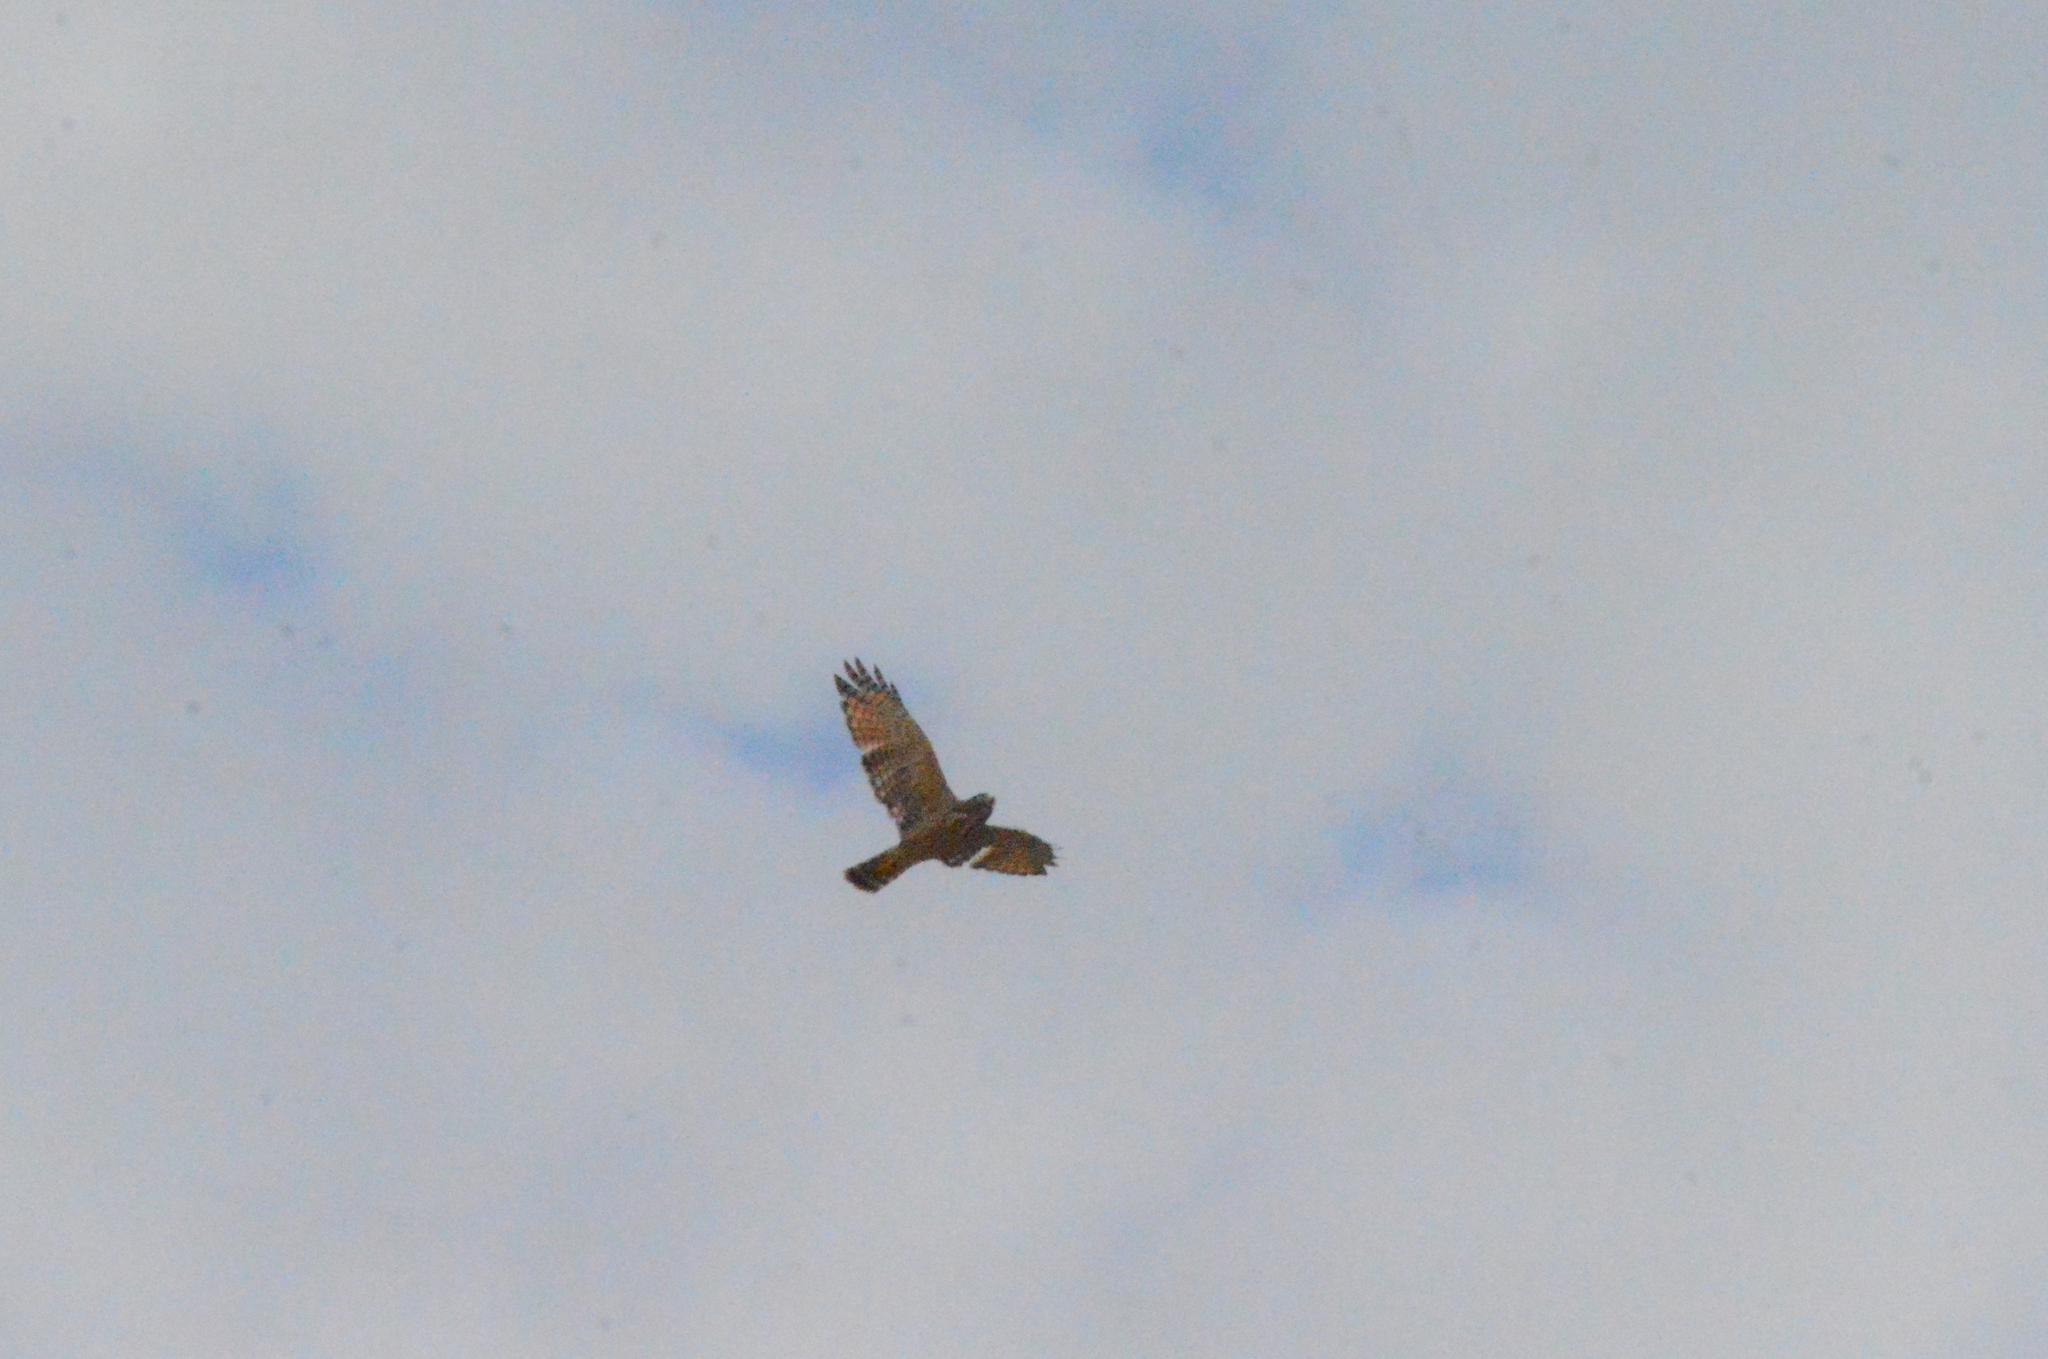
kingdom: Animalia
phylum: Chordata
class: Aves
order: Accipitriformes
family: Accipitridae
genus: Rupornis
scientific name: Rupornis magnirostris
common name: Roadside hawk
